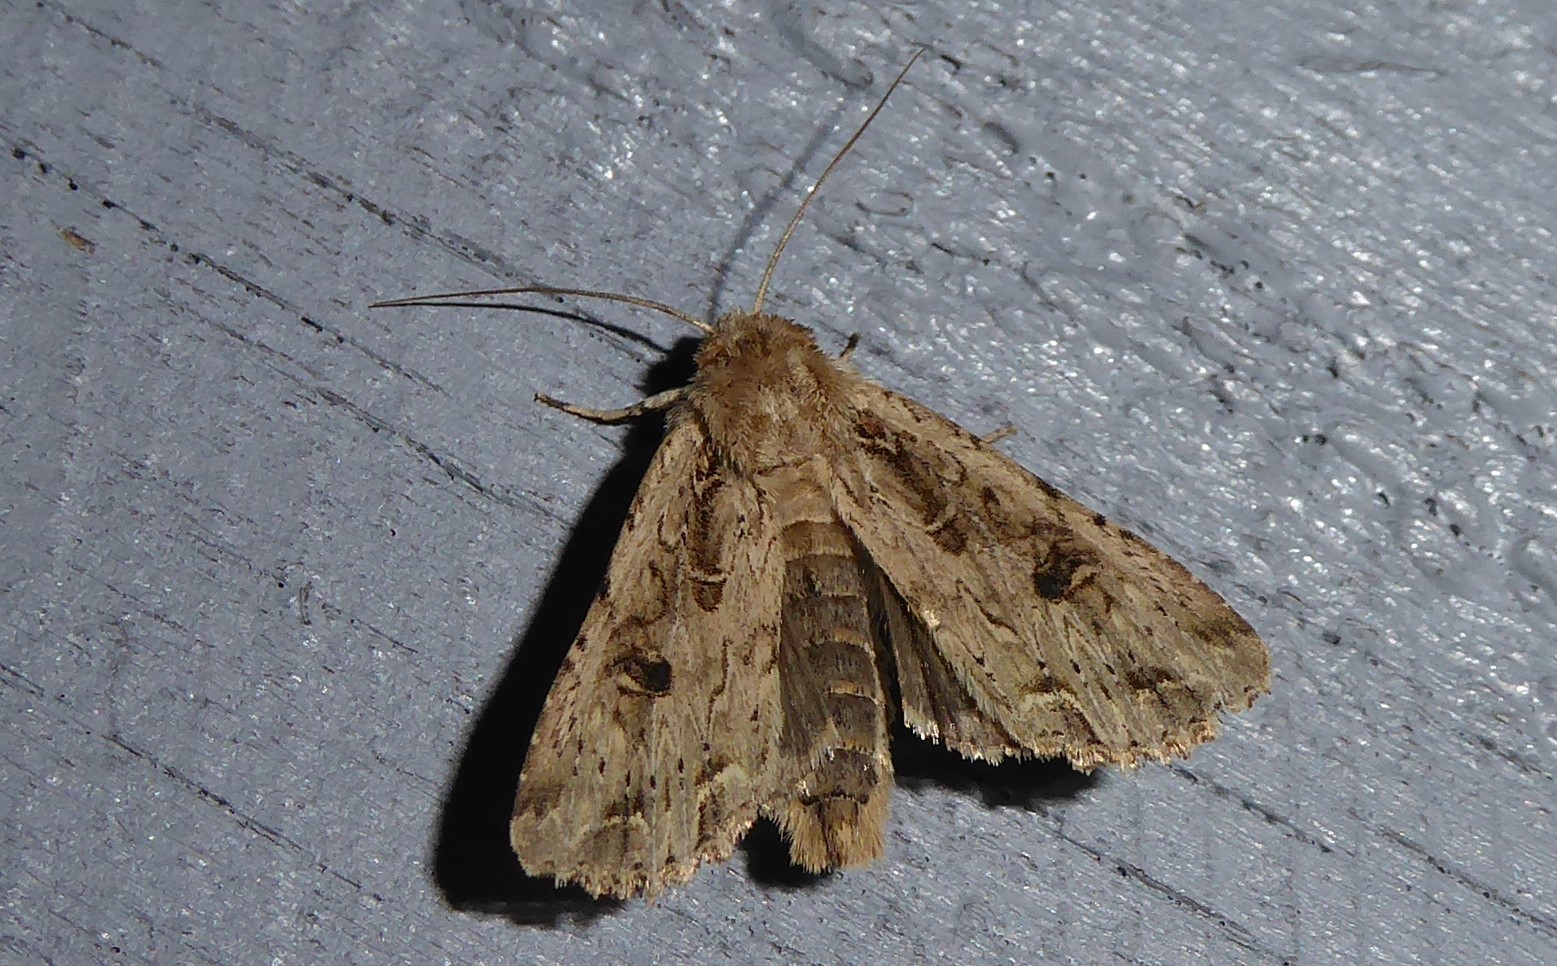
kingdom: Animalia
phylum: Arthropoda
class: Insecta
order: Lepidoptera
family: Noctuidae
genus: Ichneutica
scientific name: Ichneutica lignana
